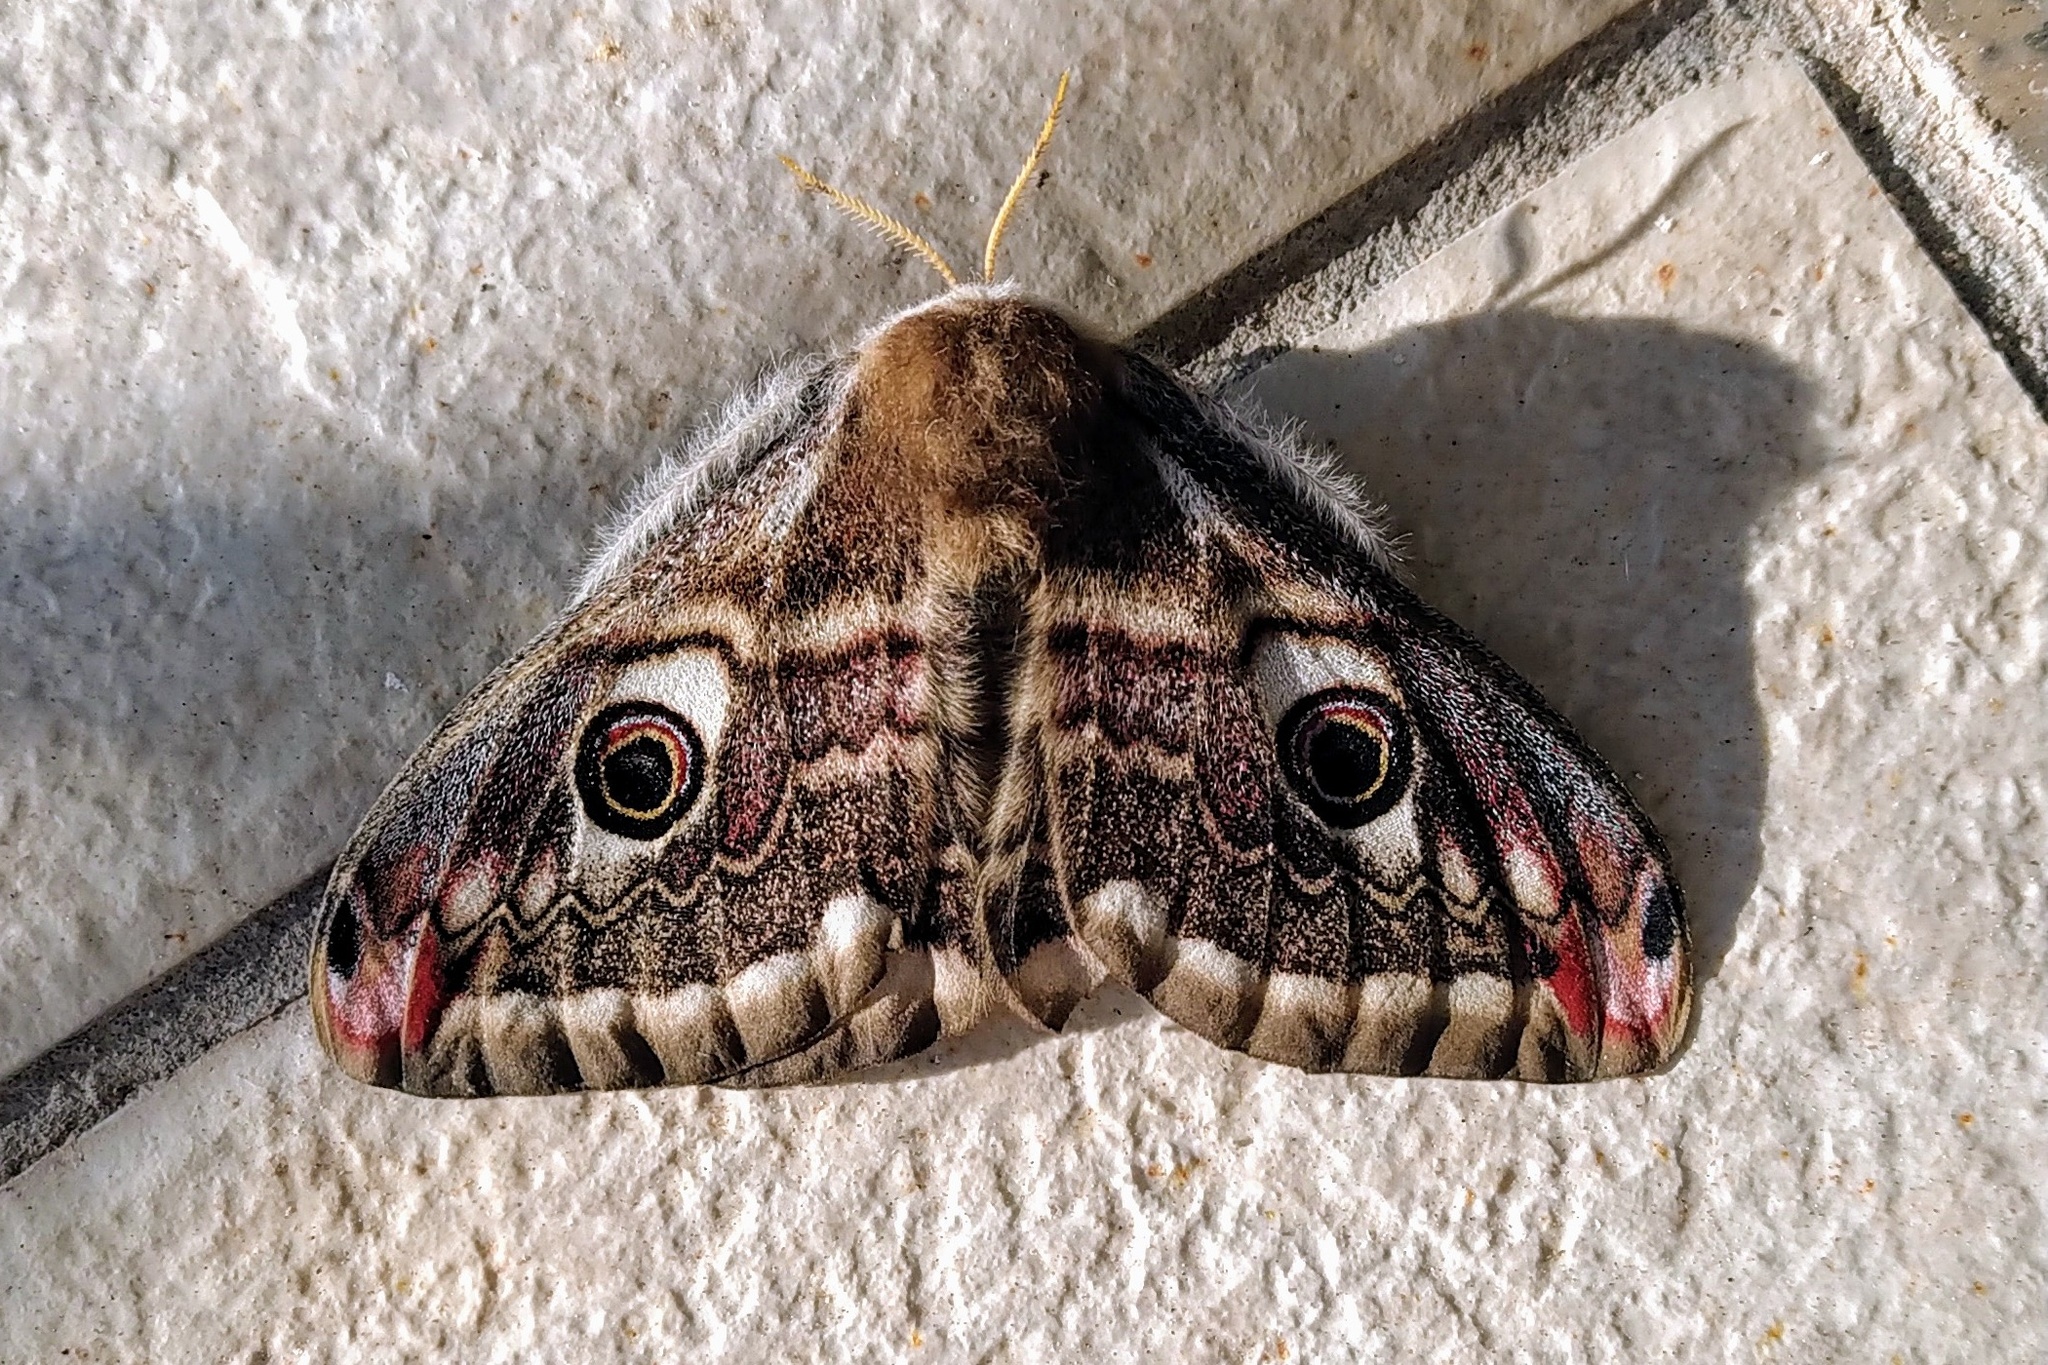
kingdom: Animalia
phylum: Arthropoda
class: Insecta
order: Lepidoptera
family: Saturniidae
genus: Saturnia
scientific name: Saturnia pavoniella
